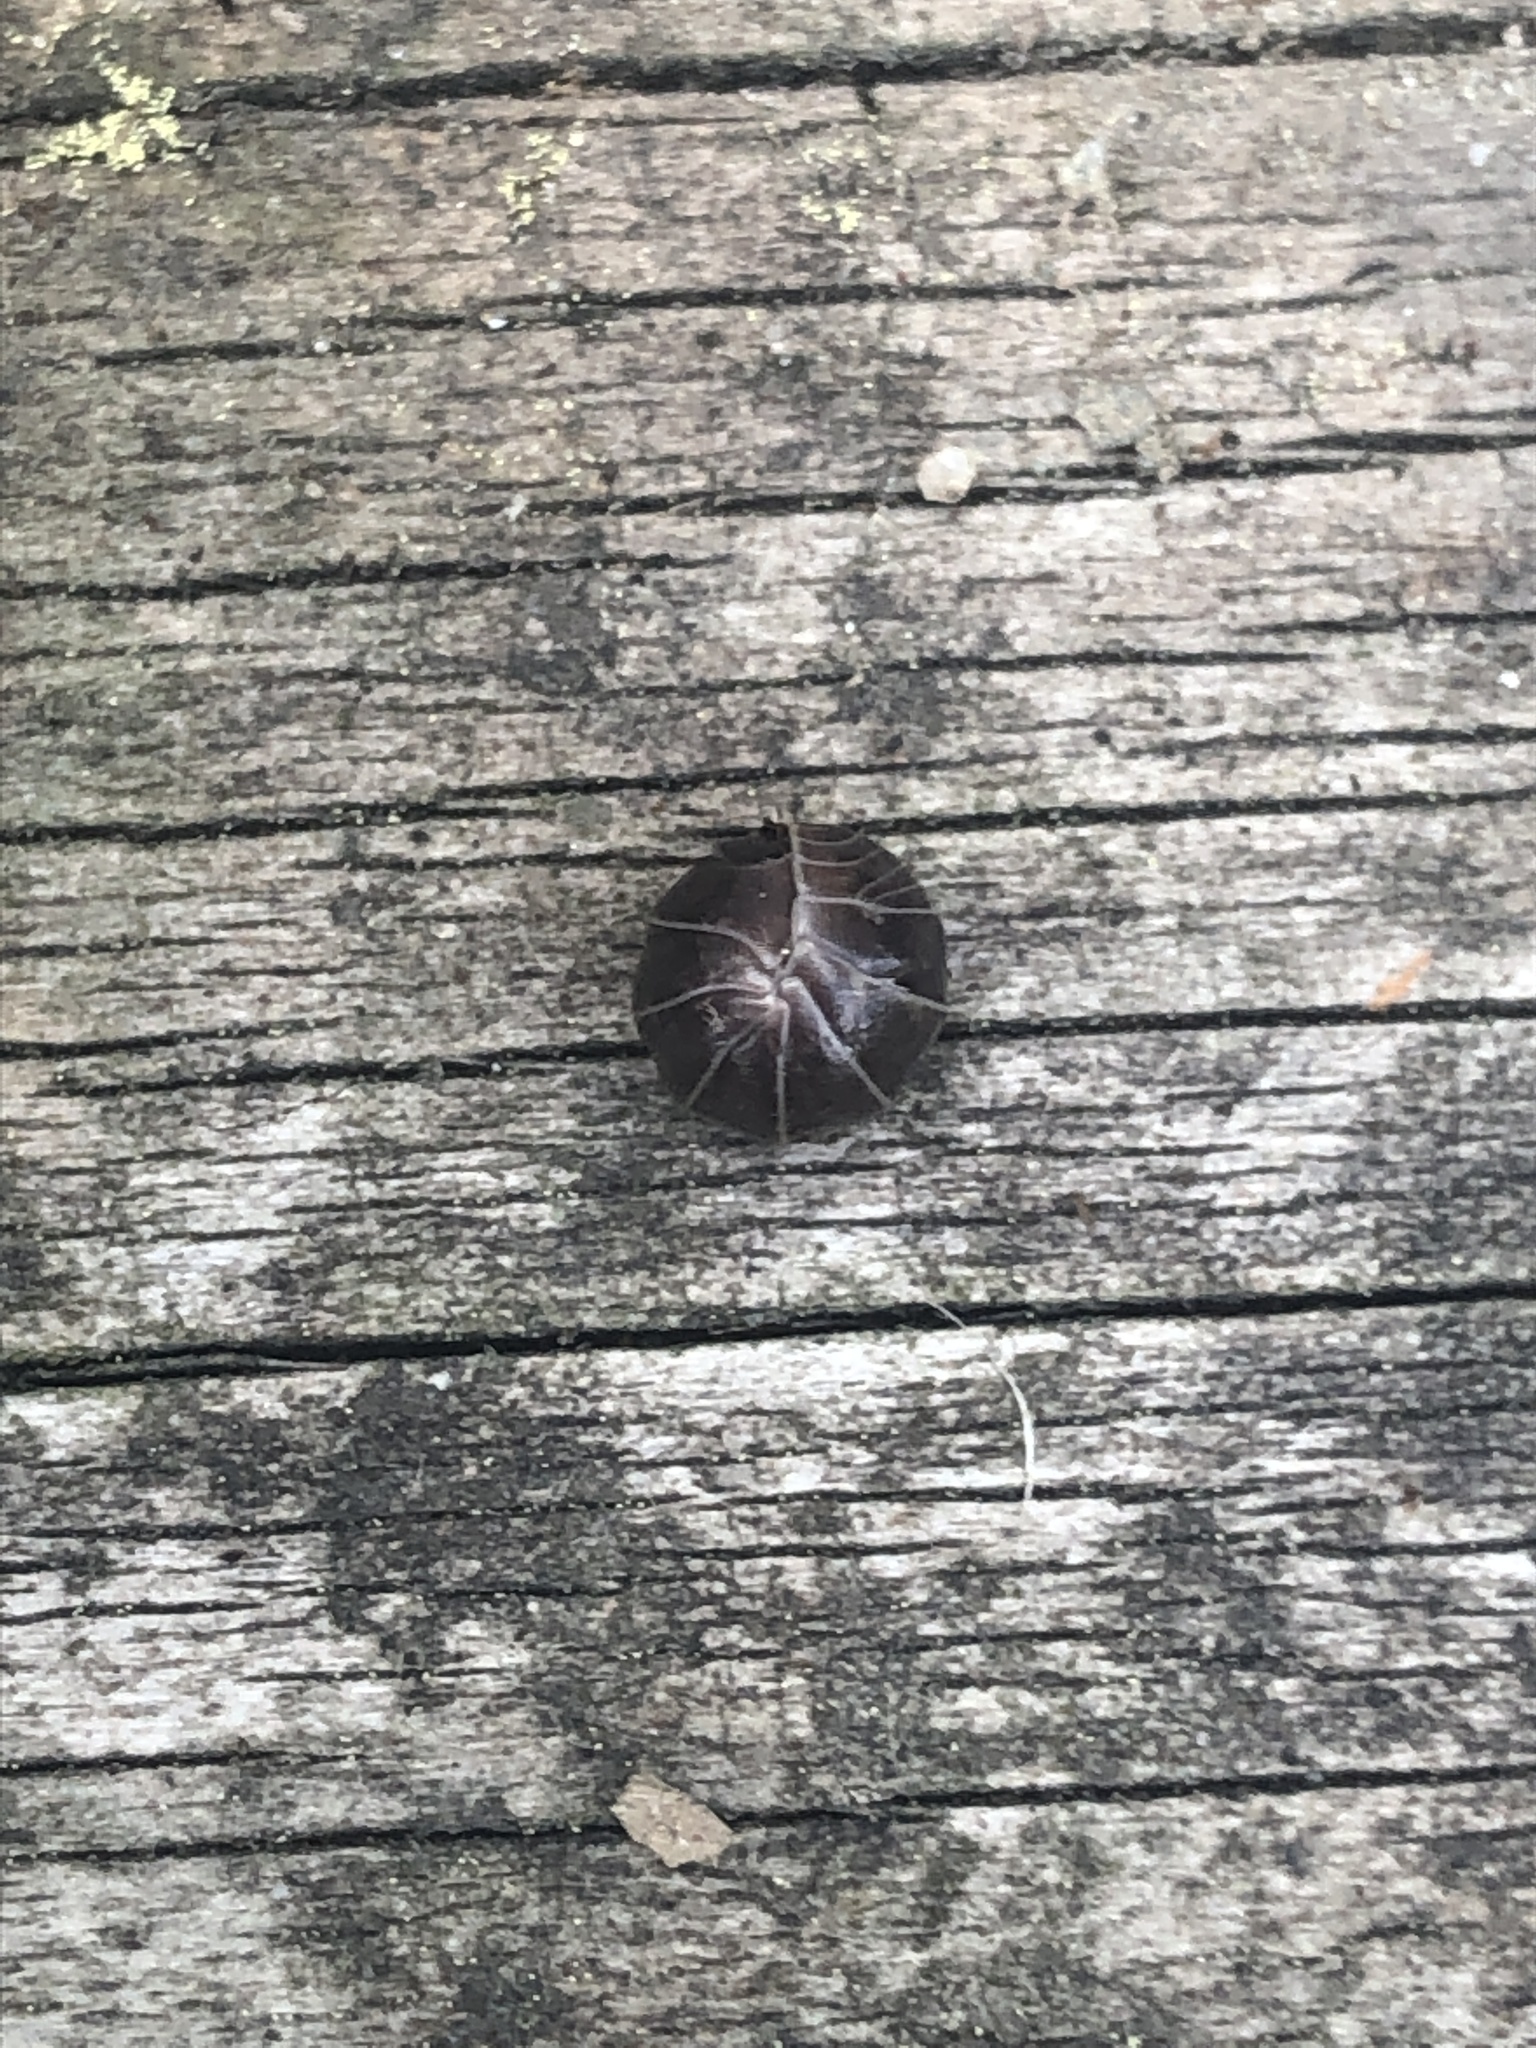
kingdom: Animalia
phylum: Arthropoda
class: Malacostraca
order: Isopoda
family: Armadillidiidae
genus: Armadillidium
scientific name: Armadillidium vulgare
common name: Common pill woodlouse
